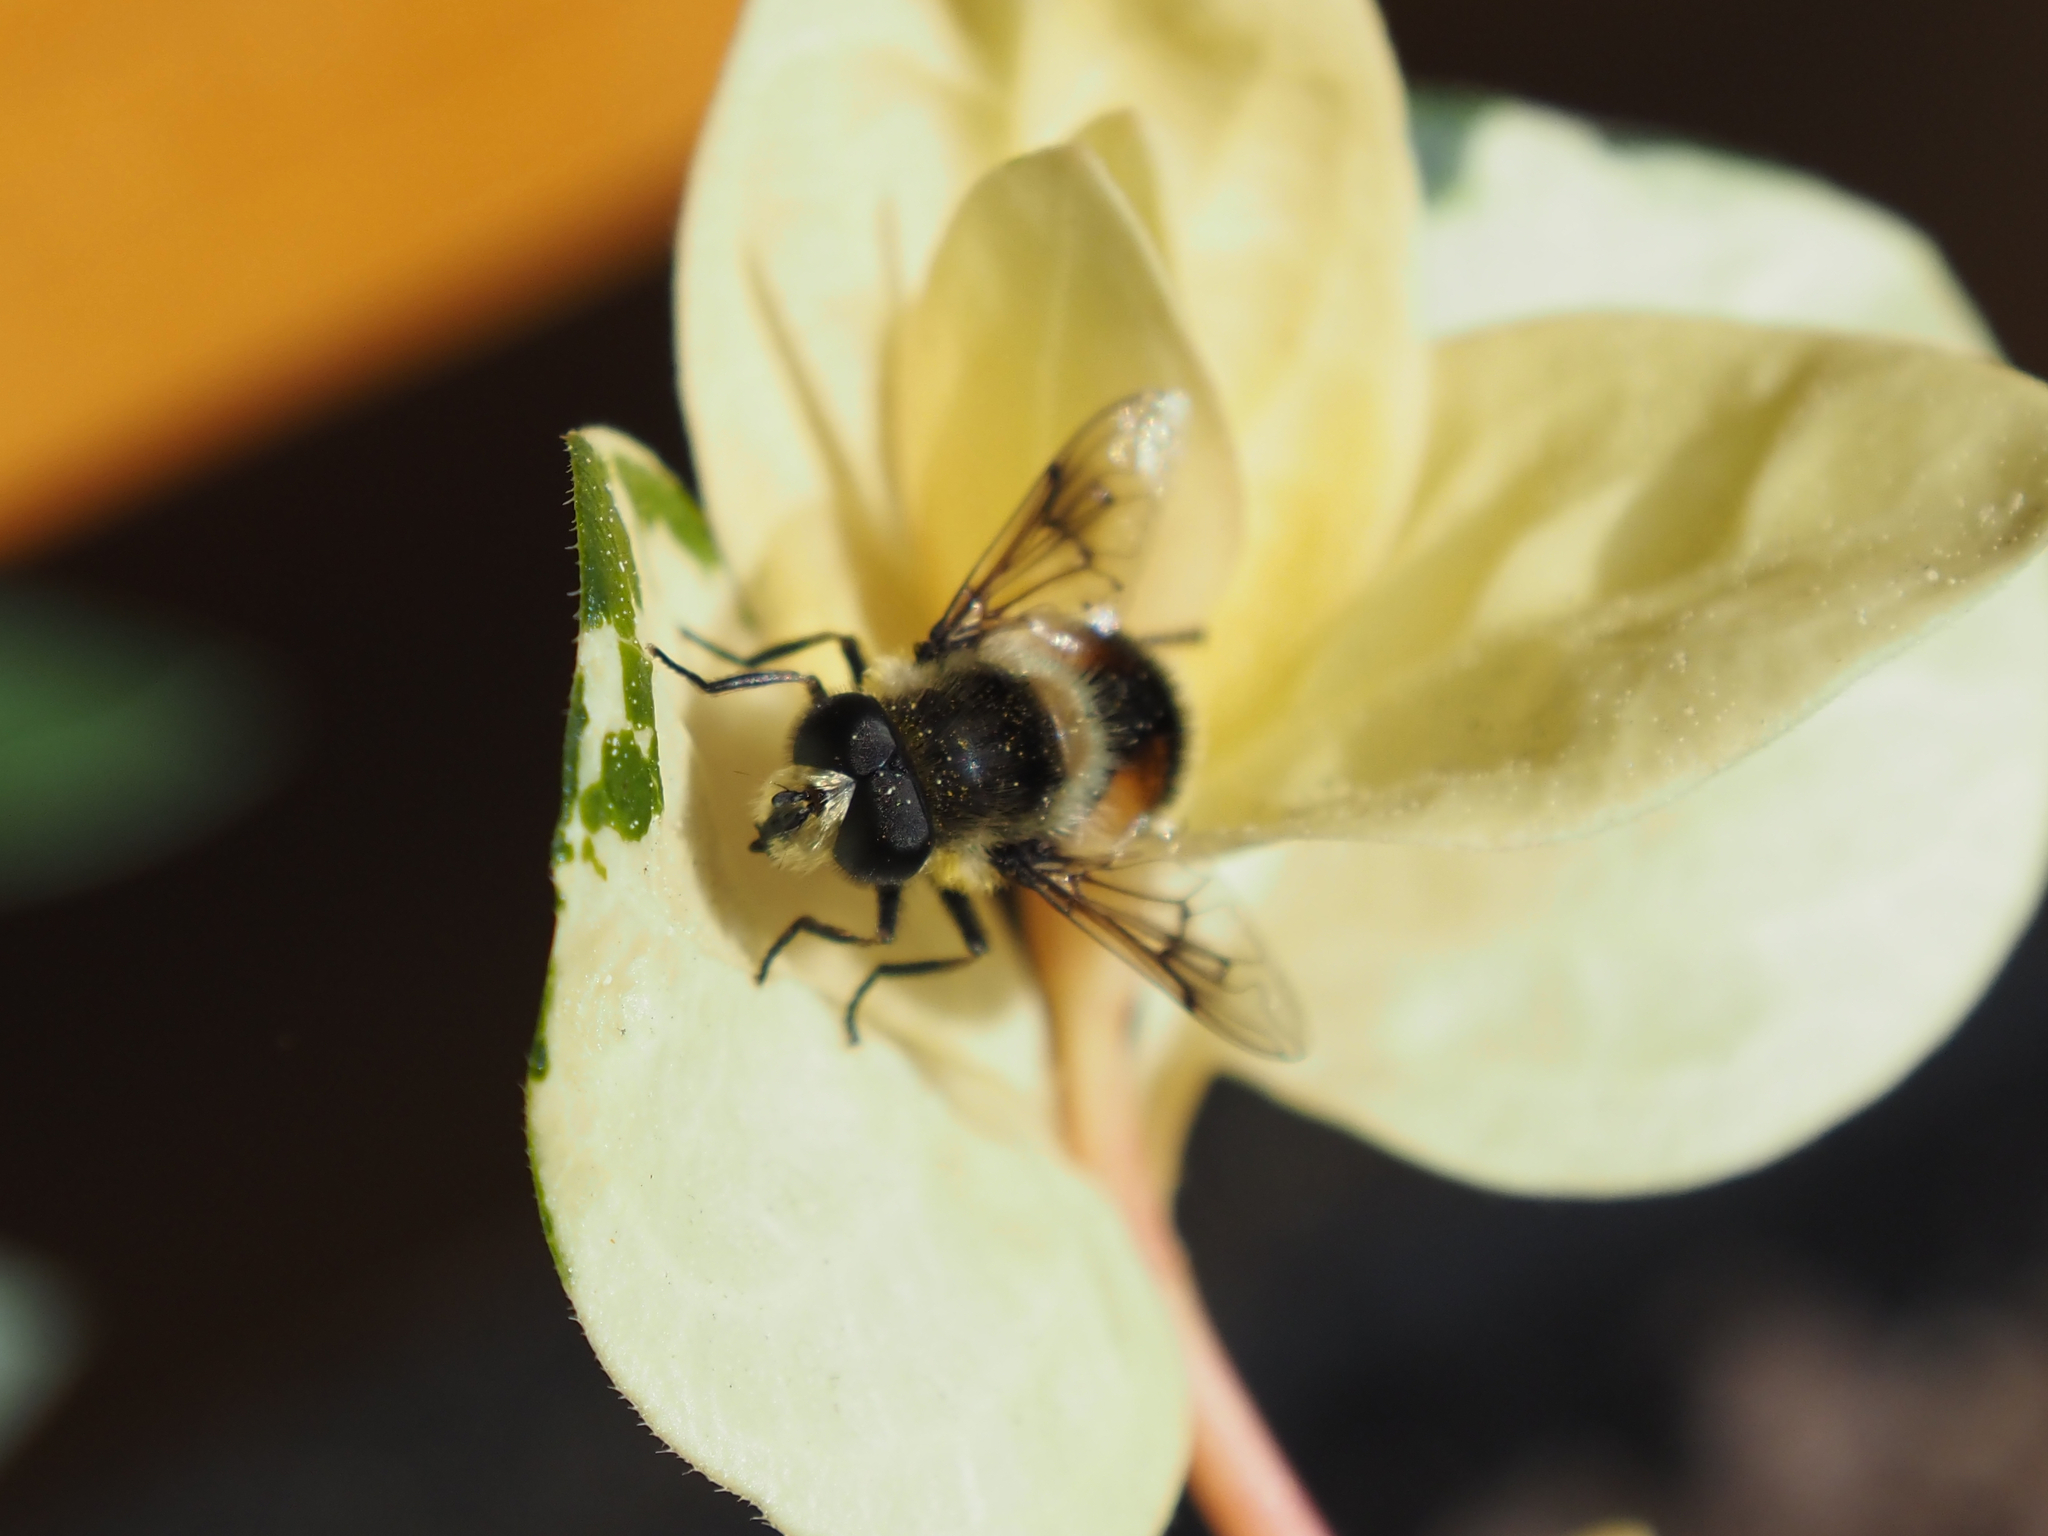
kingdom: Animalia
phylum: Arthropoda
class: Insecta
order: Diptera
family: Syrphidae
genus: Eristalis
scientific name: Eristalis anthophorina
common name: Orange-spotted drone fly
